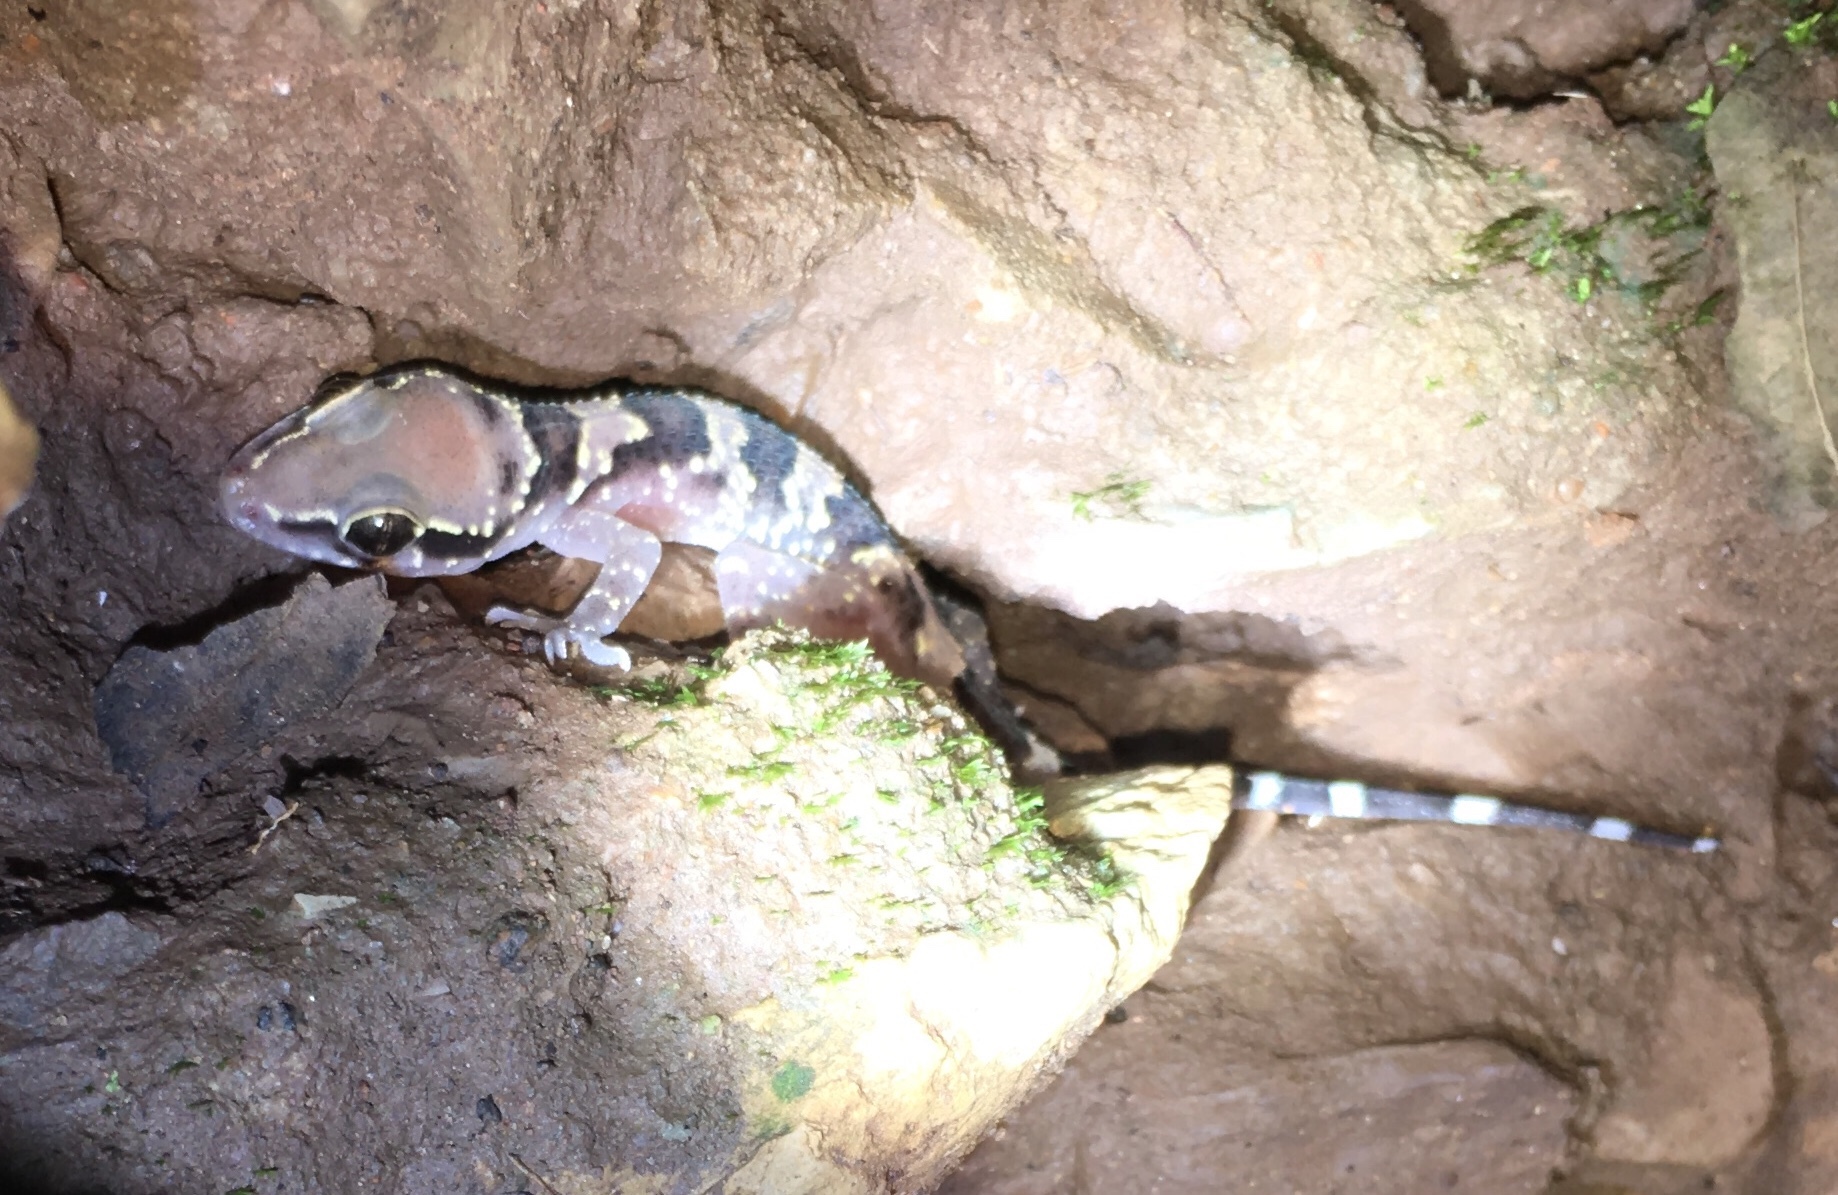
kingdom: Animalia
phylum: Chordata
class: Squamata
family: Gekkonidae
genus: Hemidactylus
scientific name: Hemidactylus sushilduttai
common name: Dutta’s mahendragiri gecko/ hemidactyl
